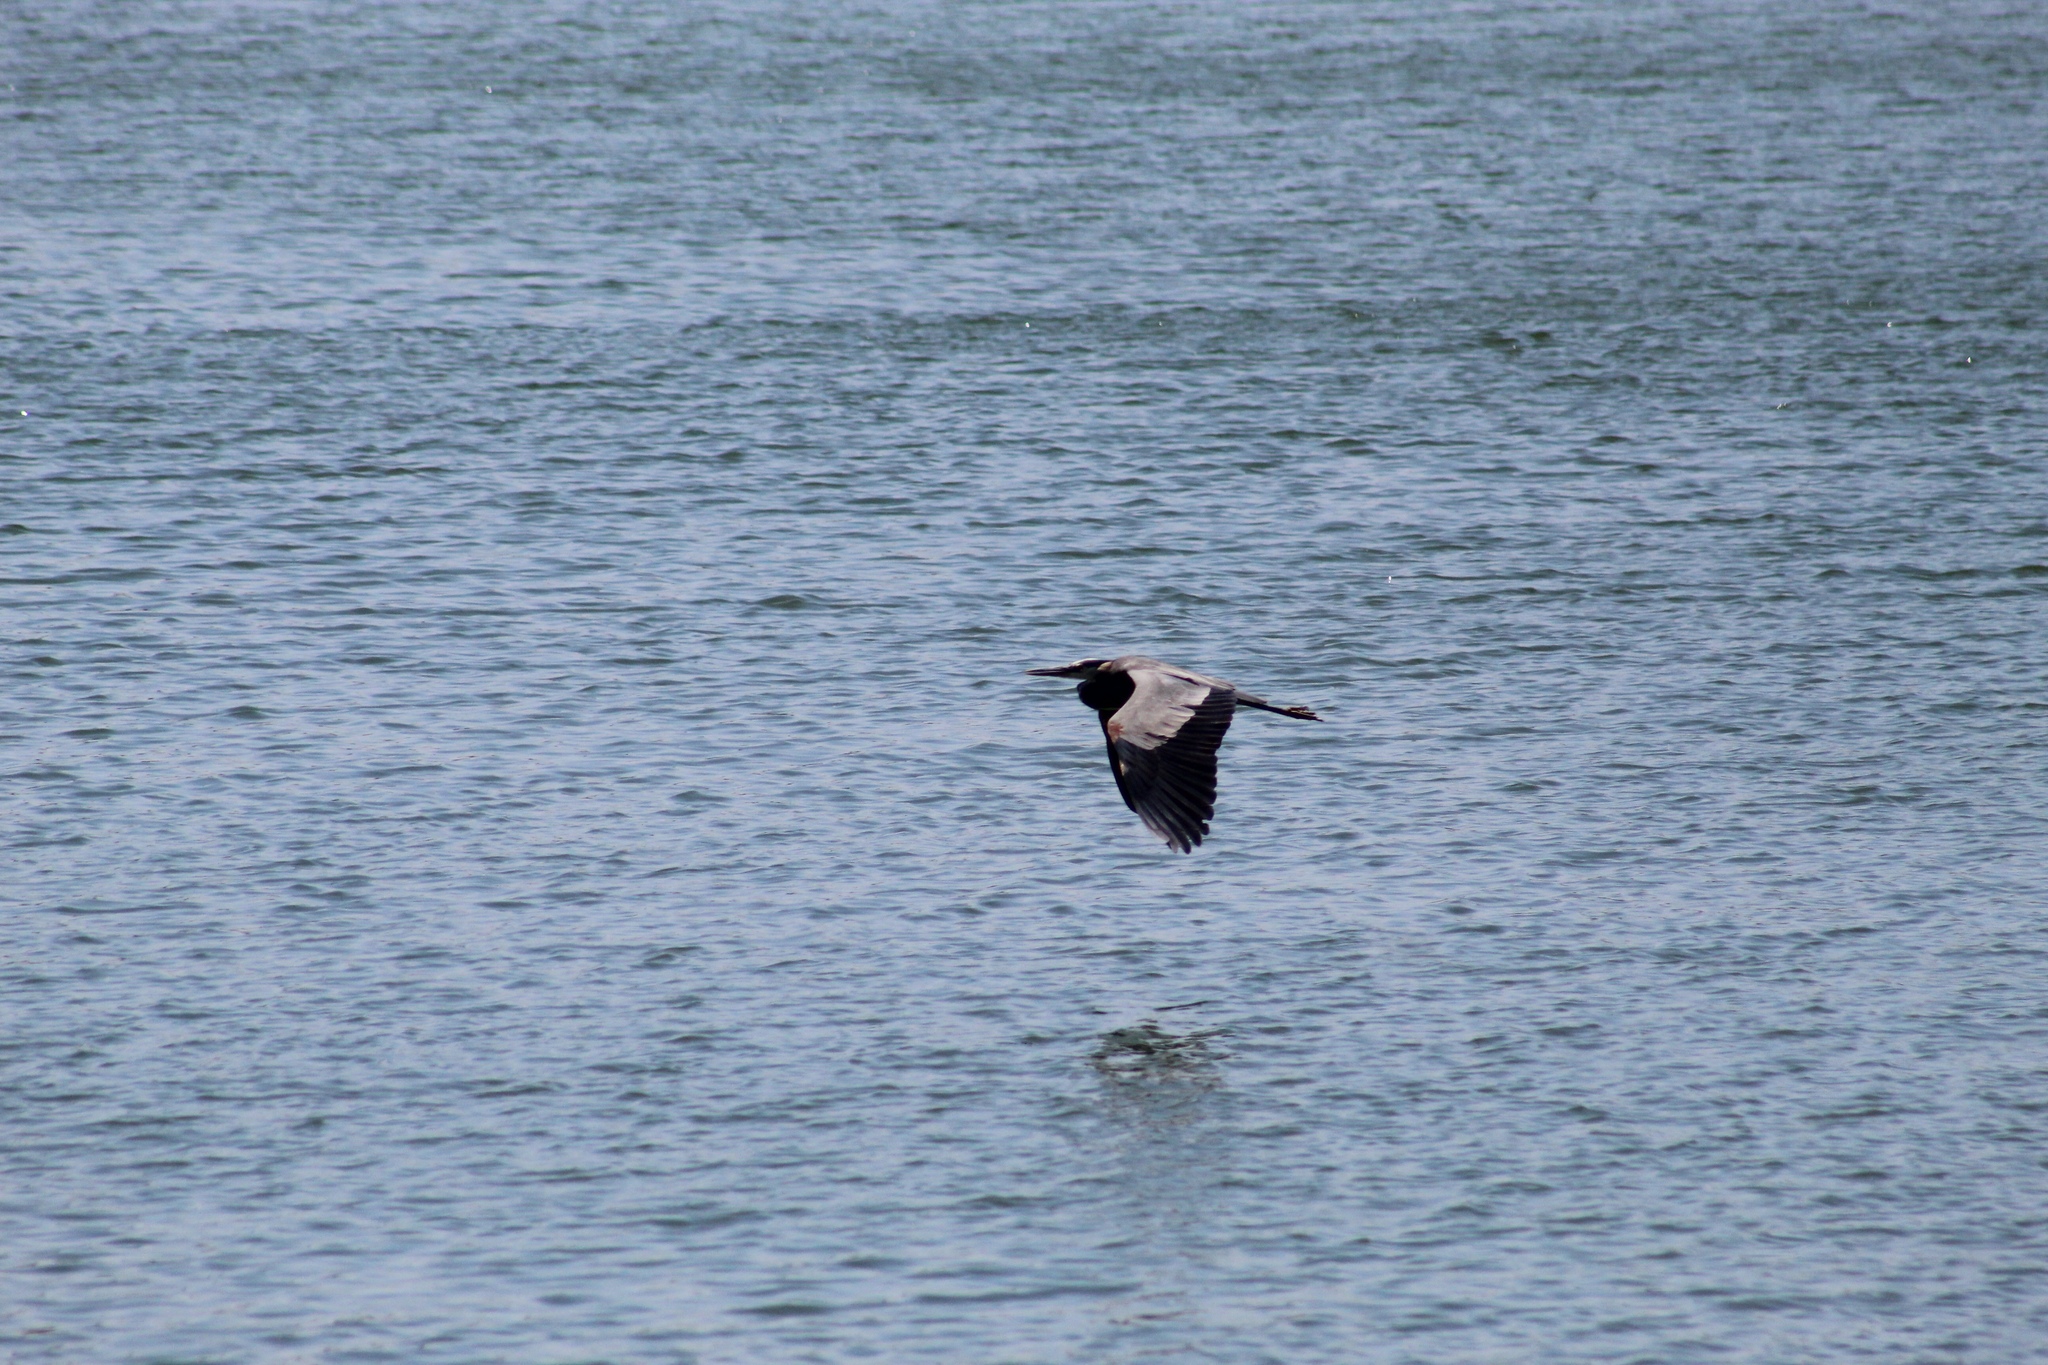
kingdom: Animalia
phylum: Chordata
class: Aves
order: Pelecaniformes
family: Ardeidae
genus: Ardea
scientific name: Ardea herodias
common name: Great blue heron
